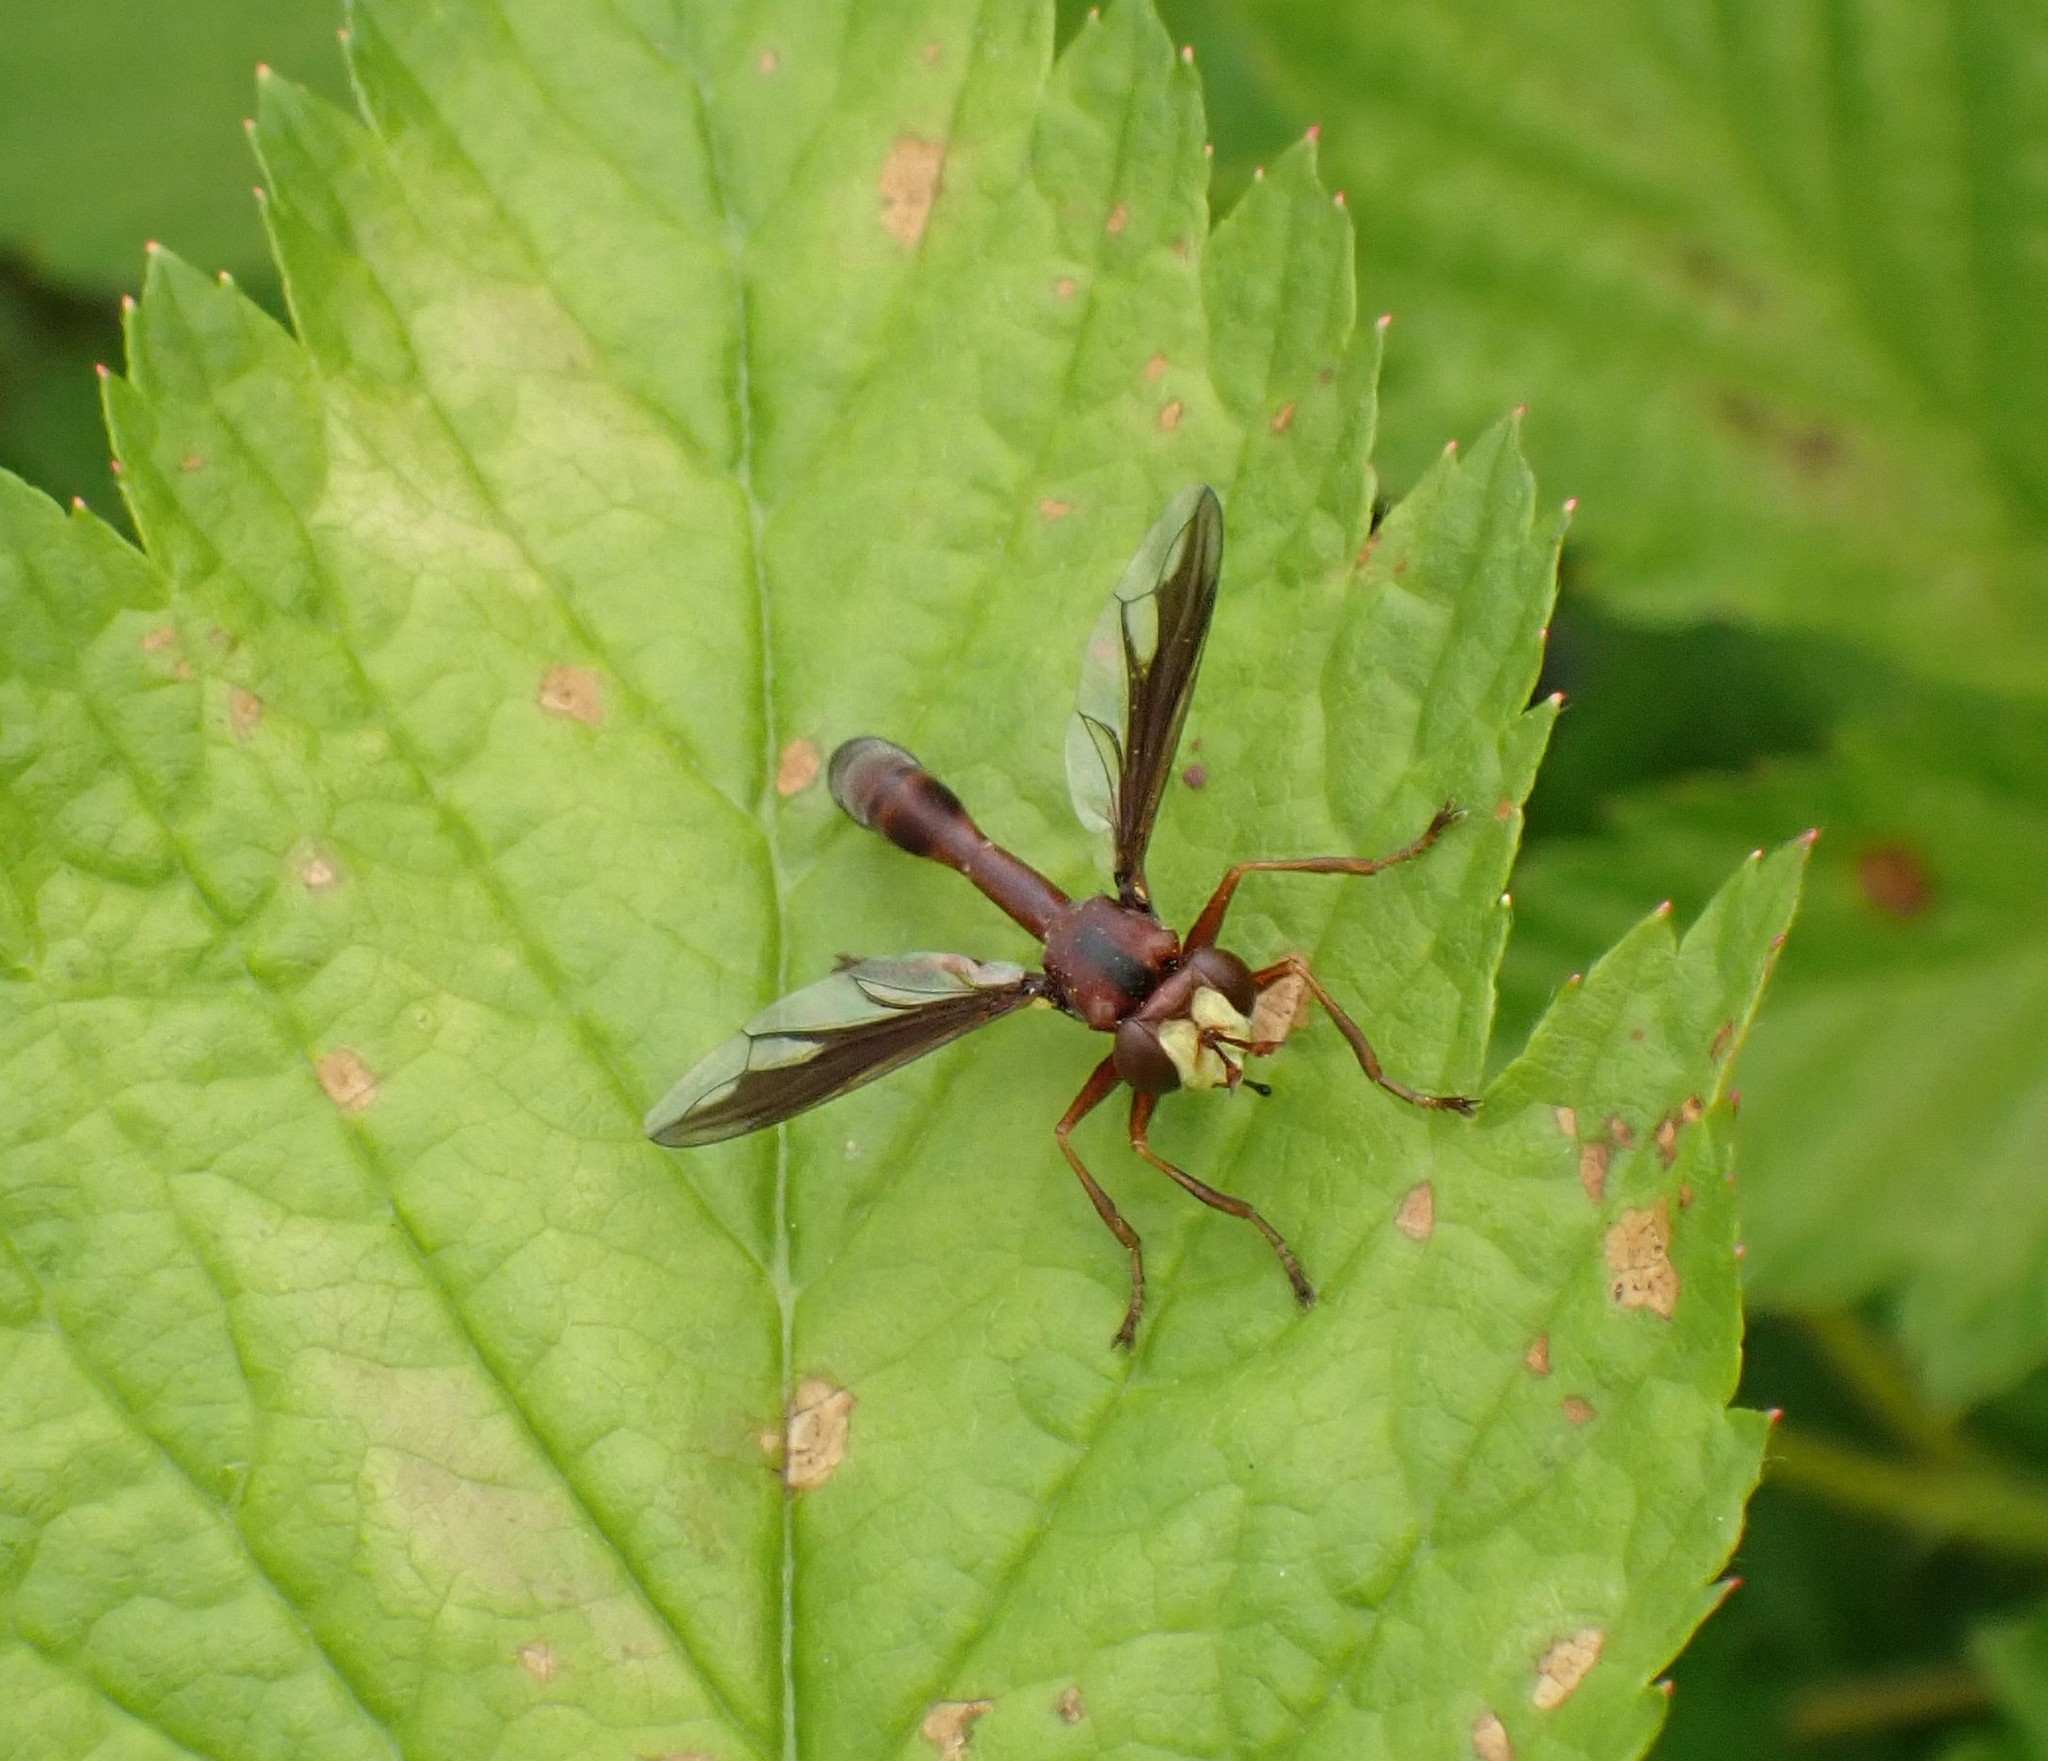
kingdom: Animalia
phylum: Arthropoda
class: Insecta
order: Diptera
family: Conopidae
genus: Physocephala
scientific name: Physocephala burgessi
